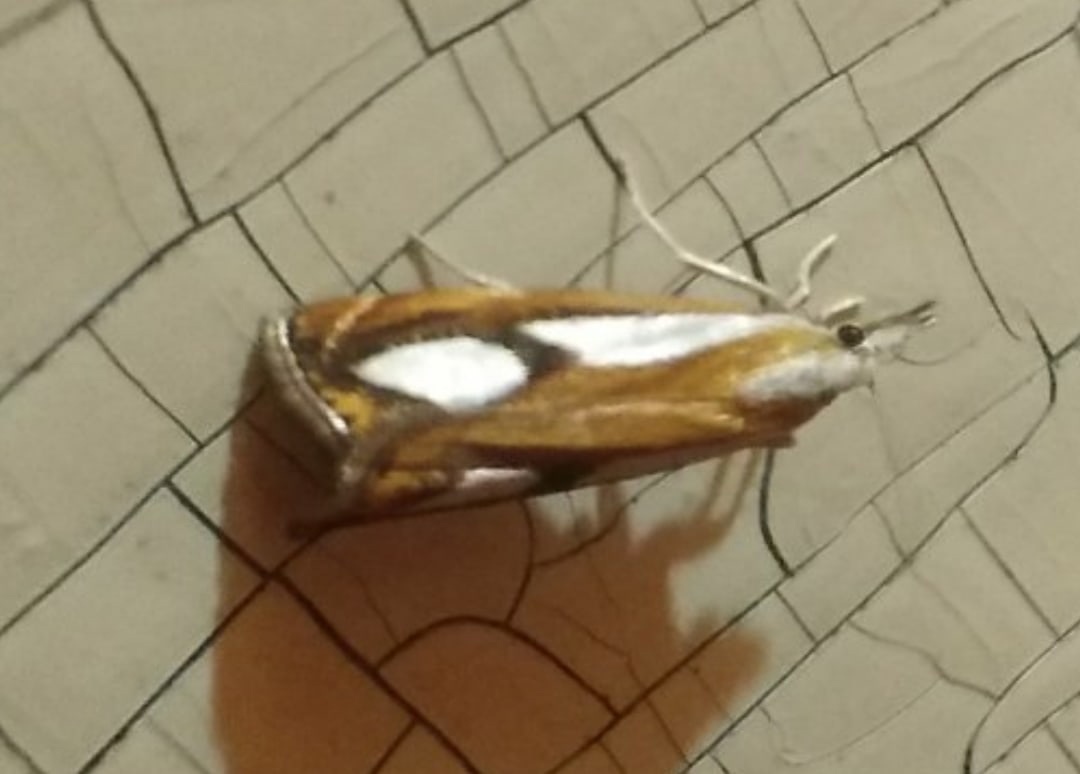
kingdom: Animalia
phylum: Arthropoda
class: Insecta
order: Lepidoptera
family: Crambidae
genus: Catoptria
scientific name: Catoptria permiaca
